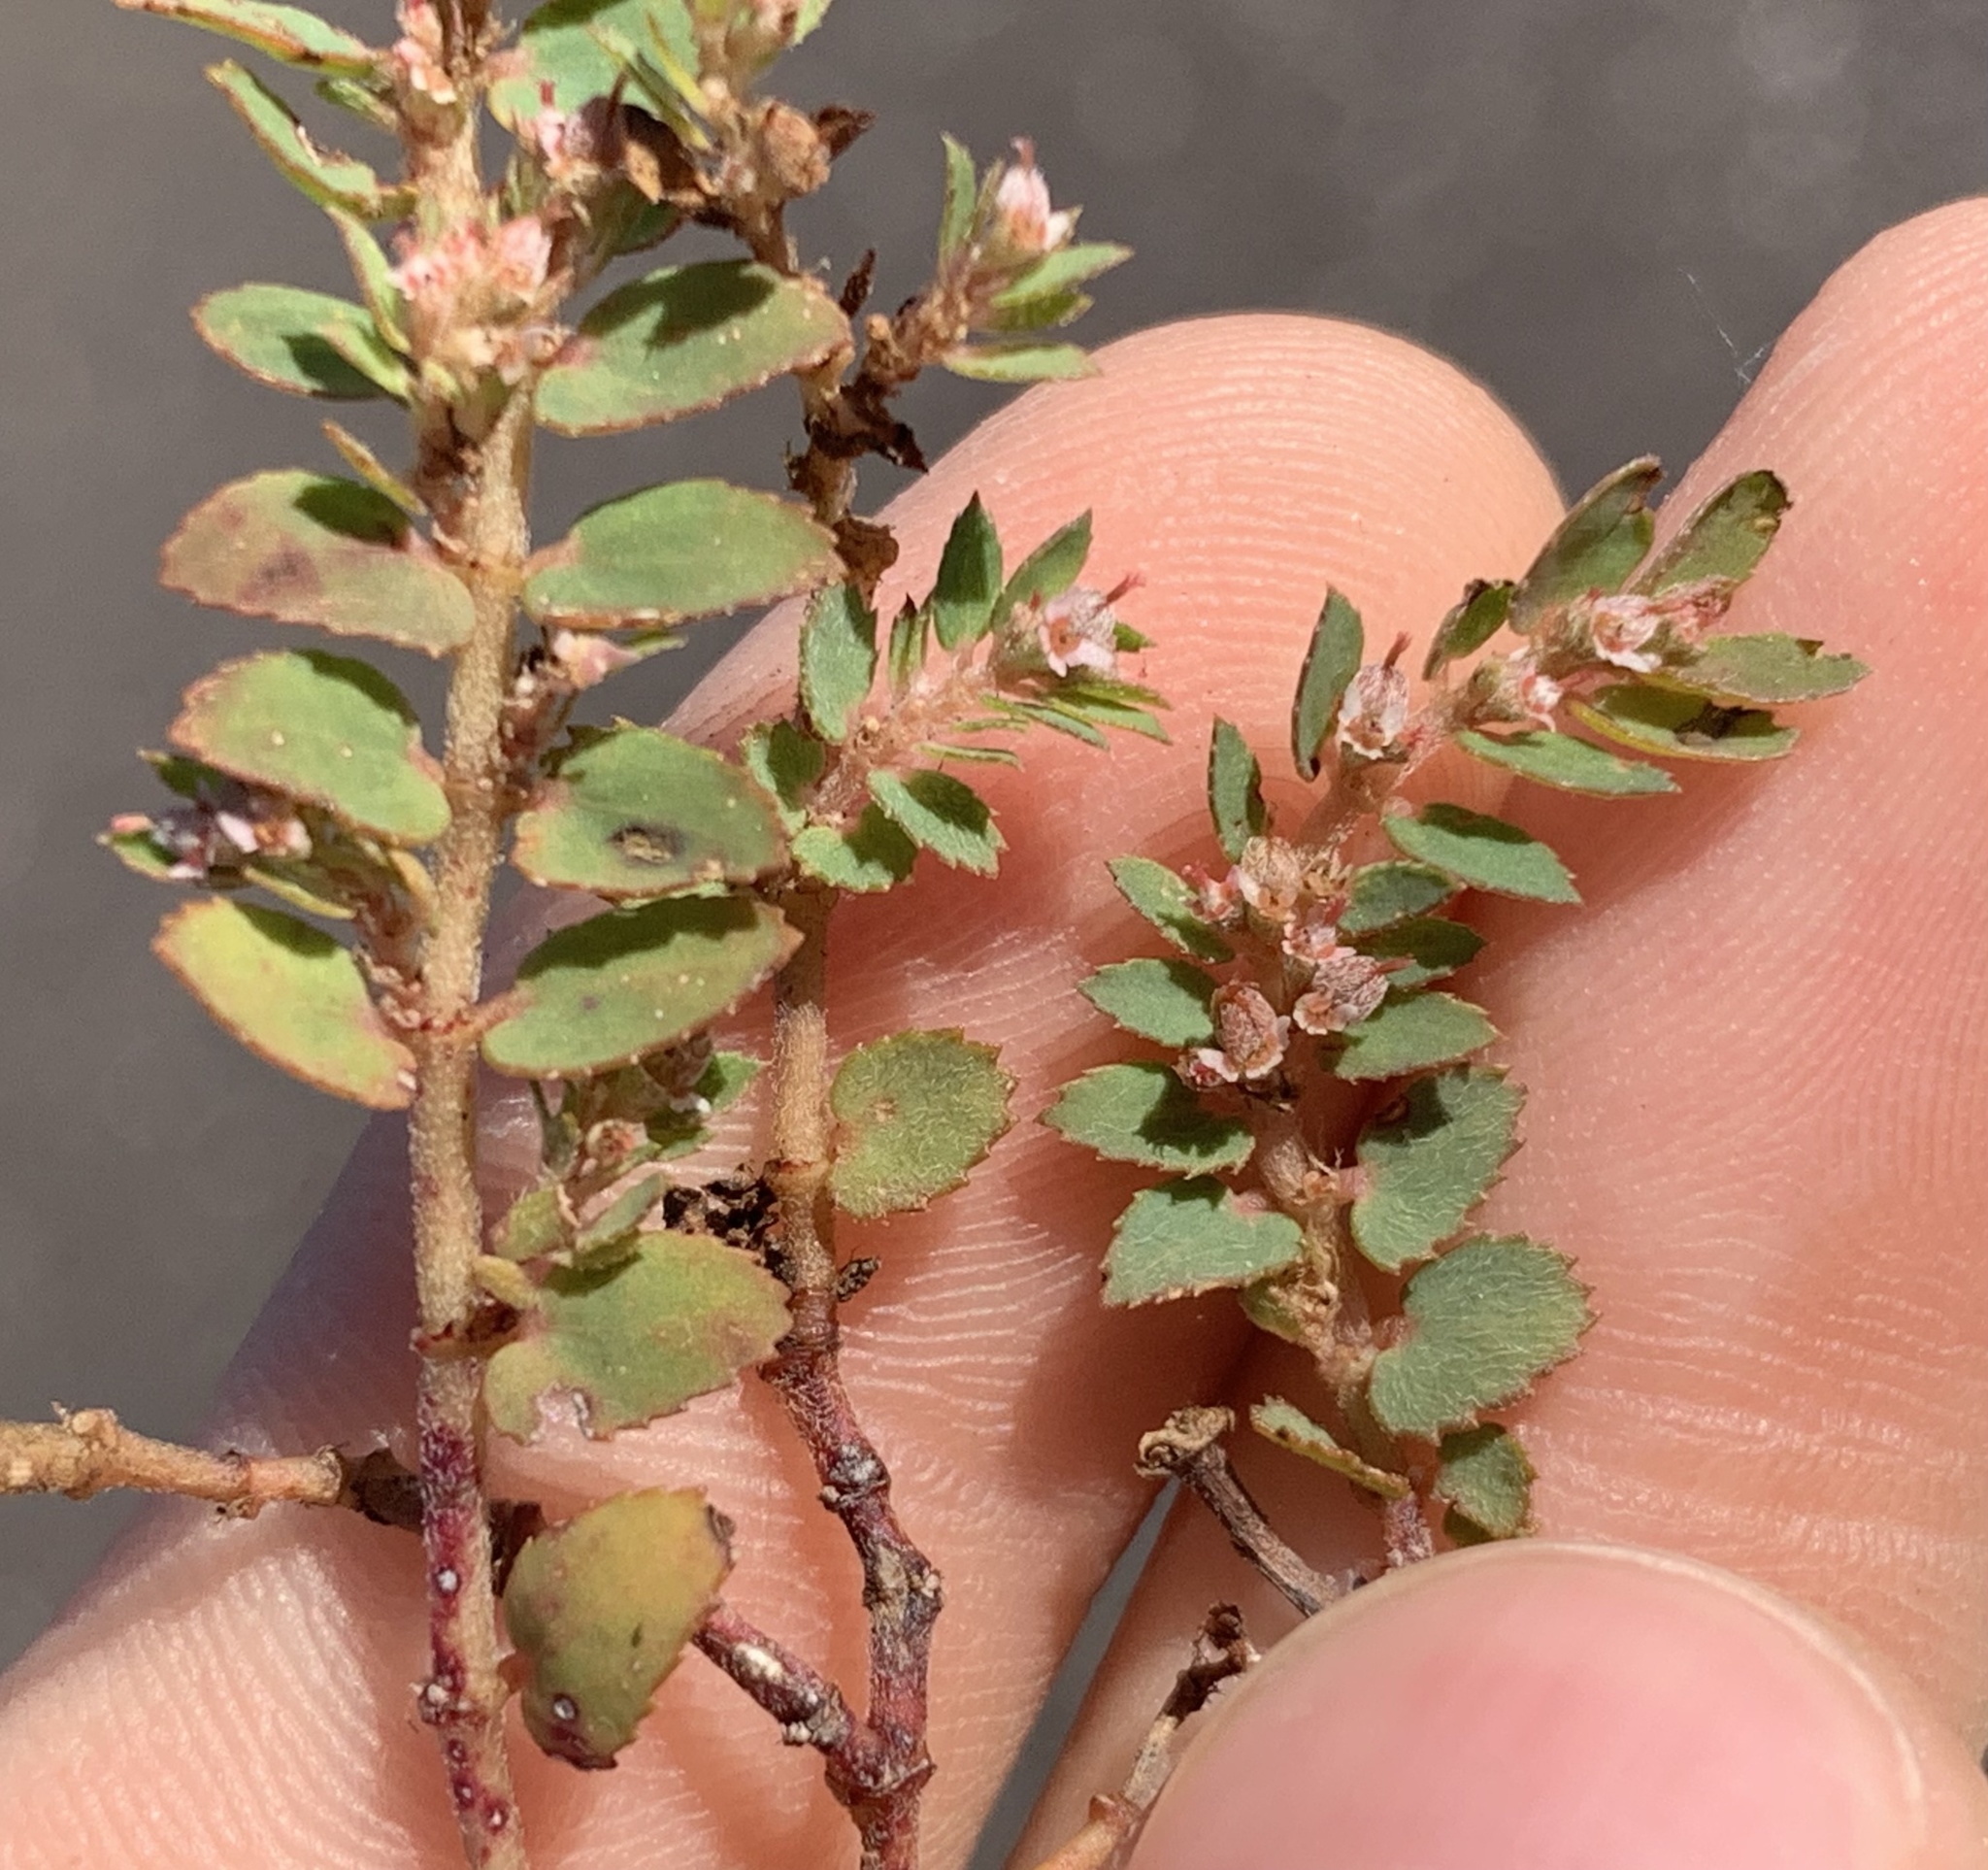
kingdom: Plantae
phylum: Tracheophyta
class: Magnoliopsida
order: Malpighiales
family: Euphorbiaceae
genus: Euphorbia
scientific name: Euphorbia thymifolia
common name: Gulf sandmat
